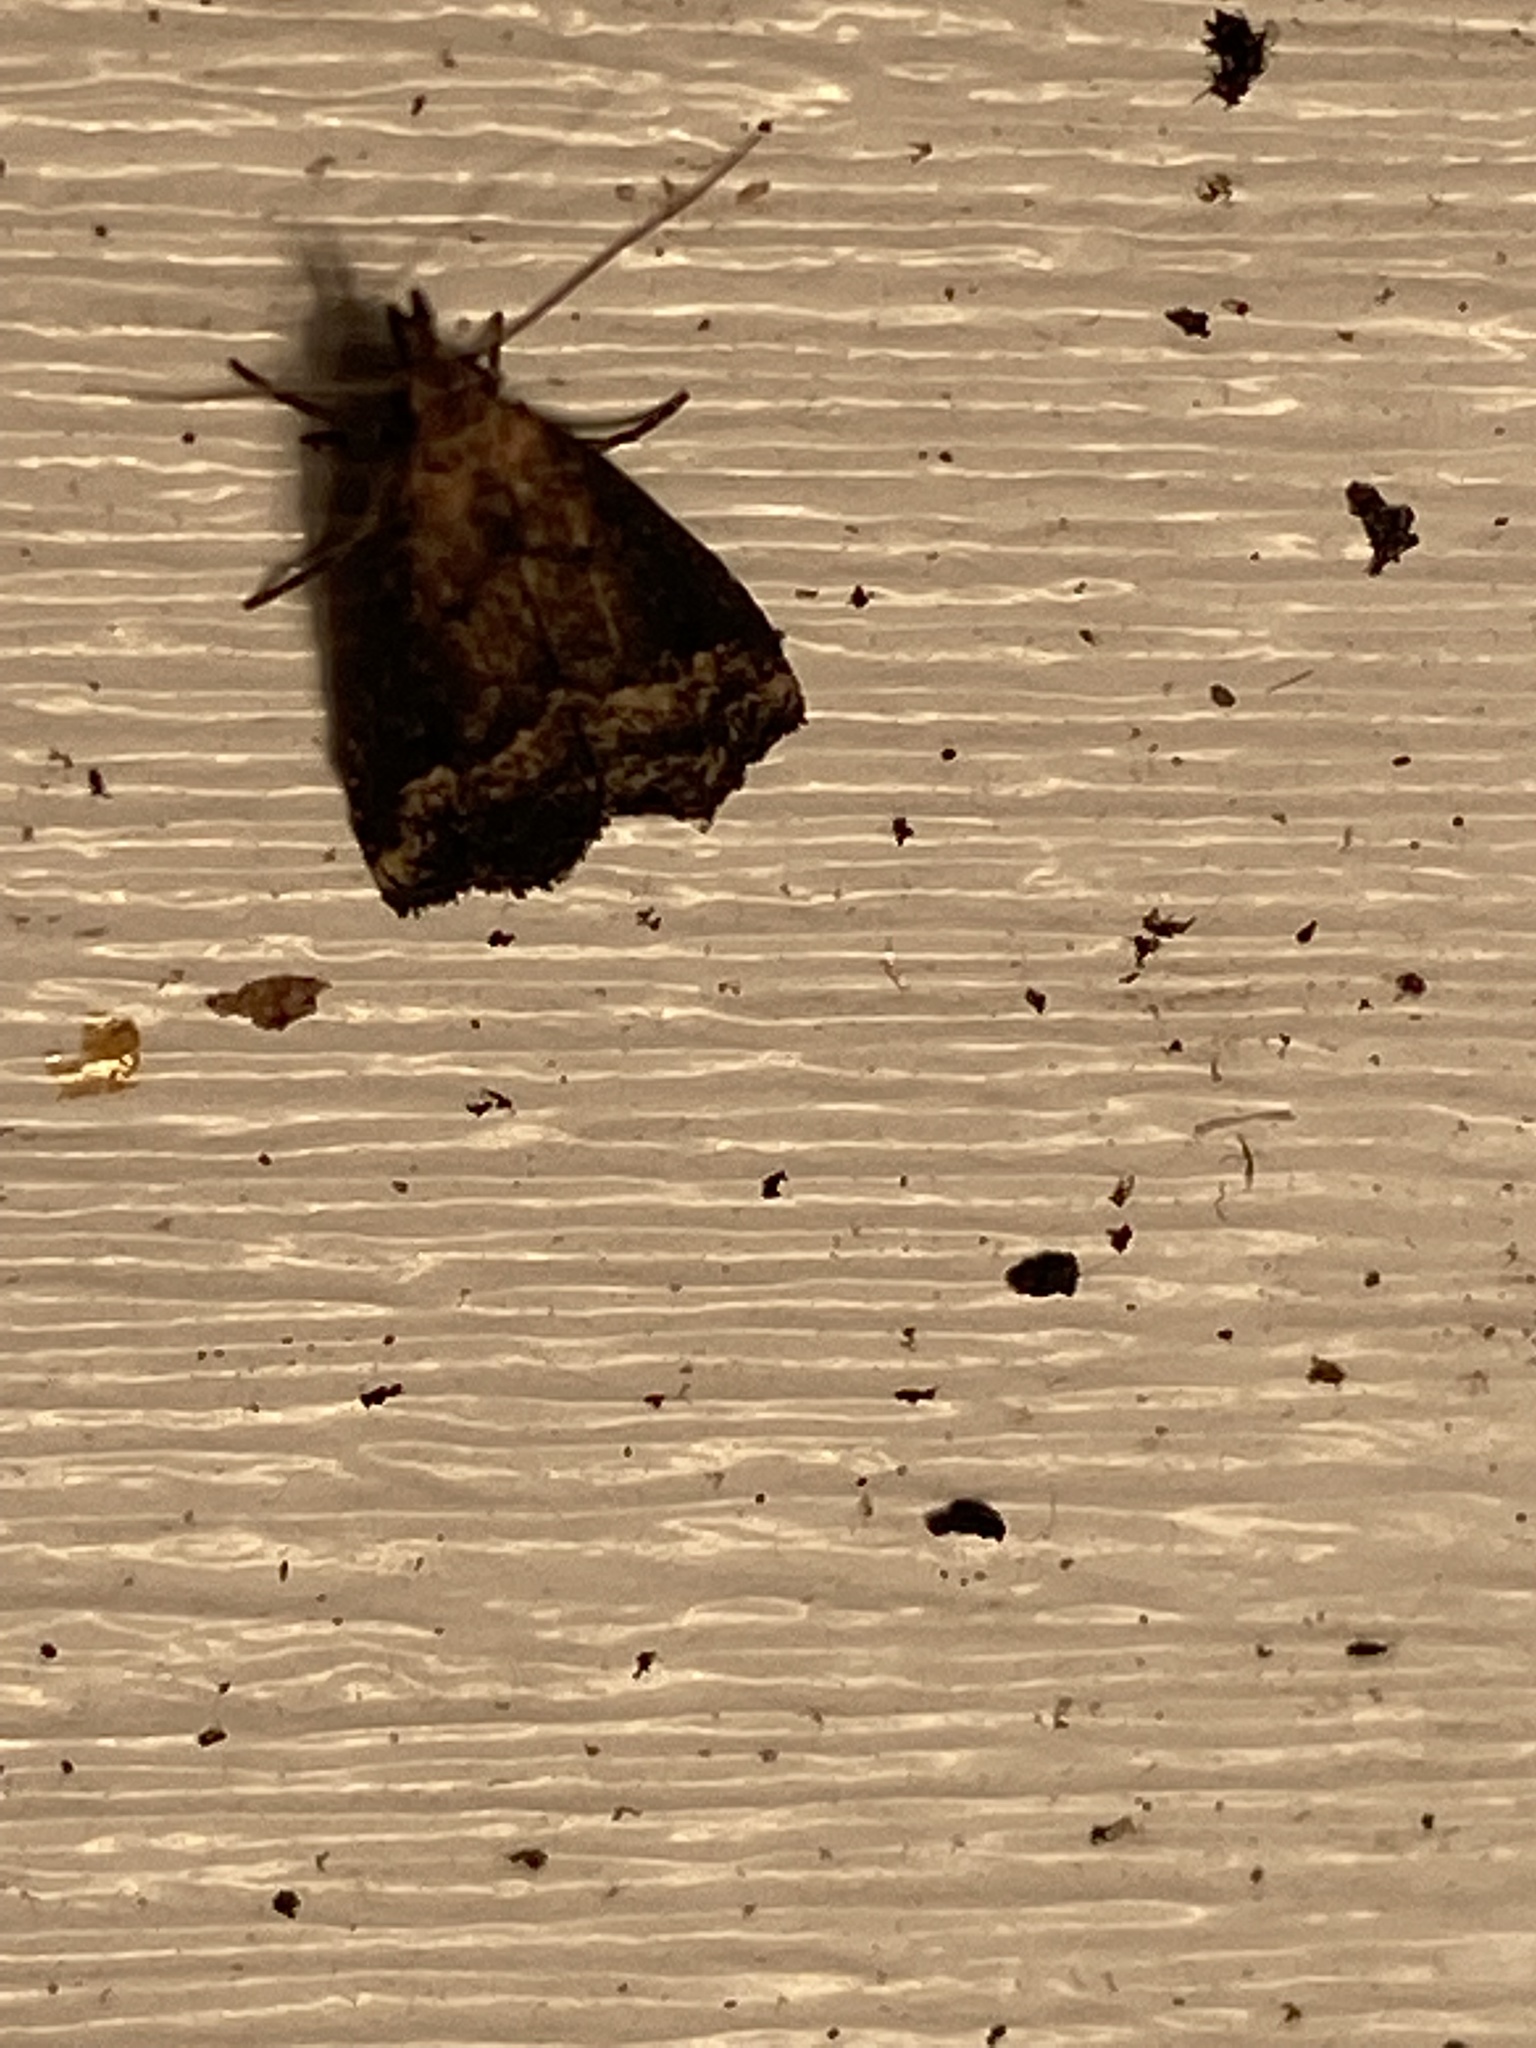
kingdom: Animalia
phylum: Arthropoda
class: Insecta
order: Lepidoptera
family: Erebidae
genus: Schrankia
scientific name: Schrankia
